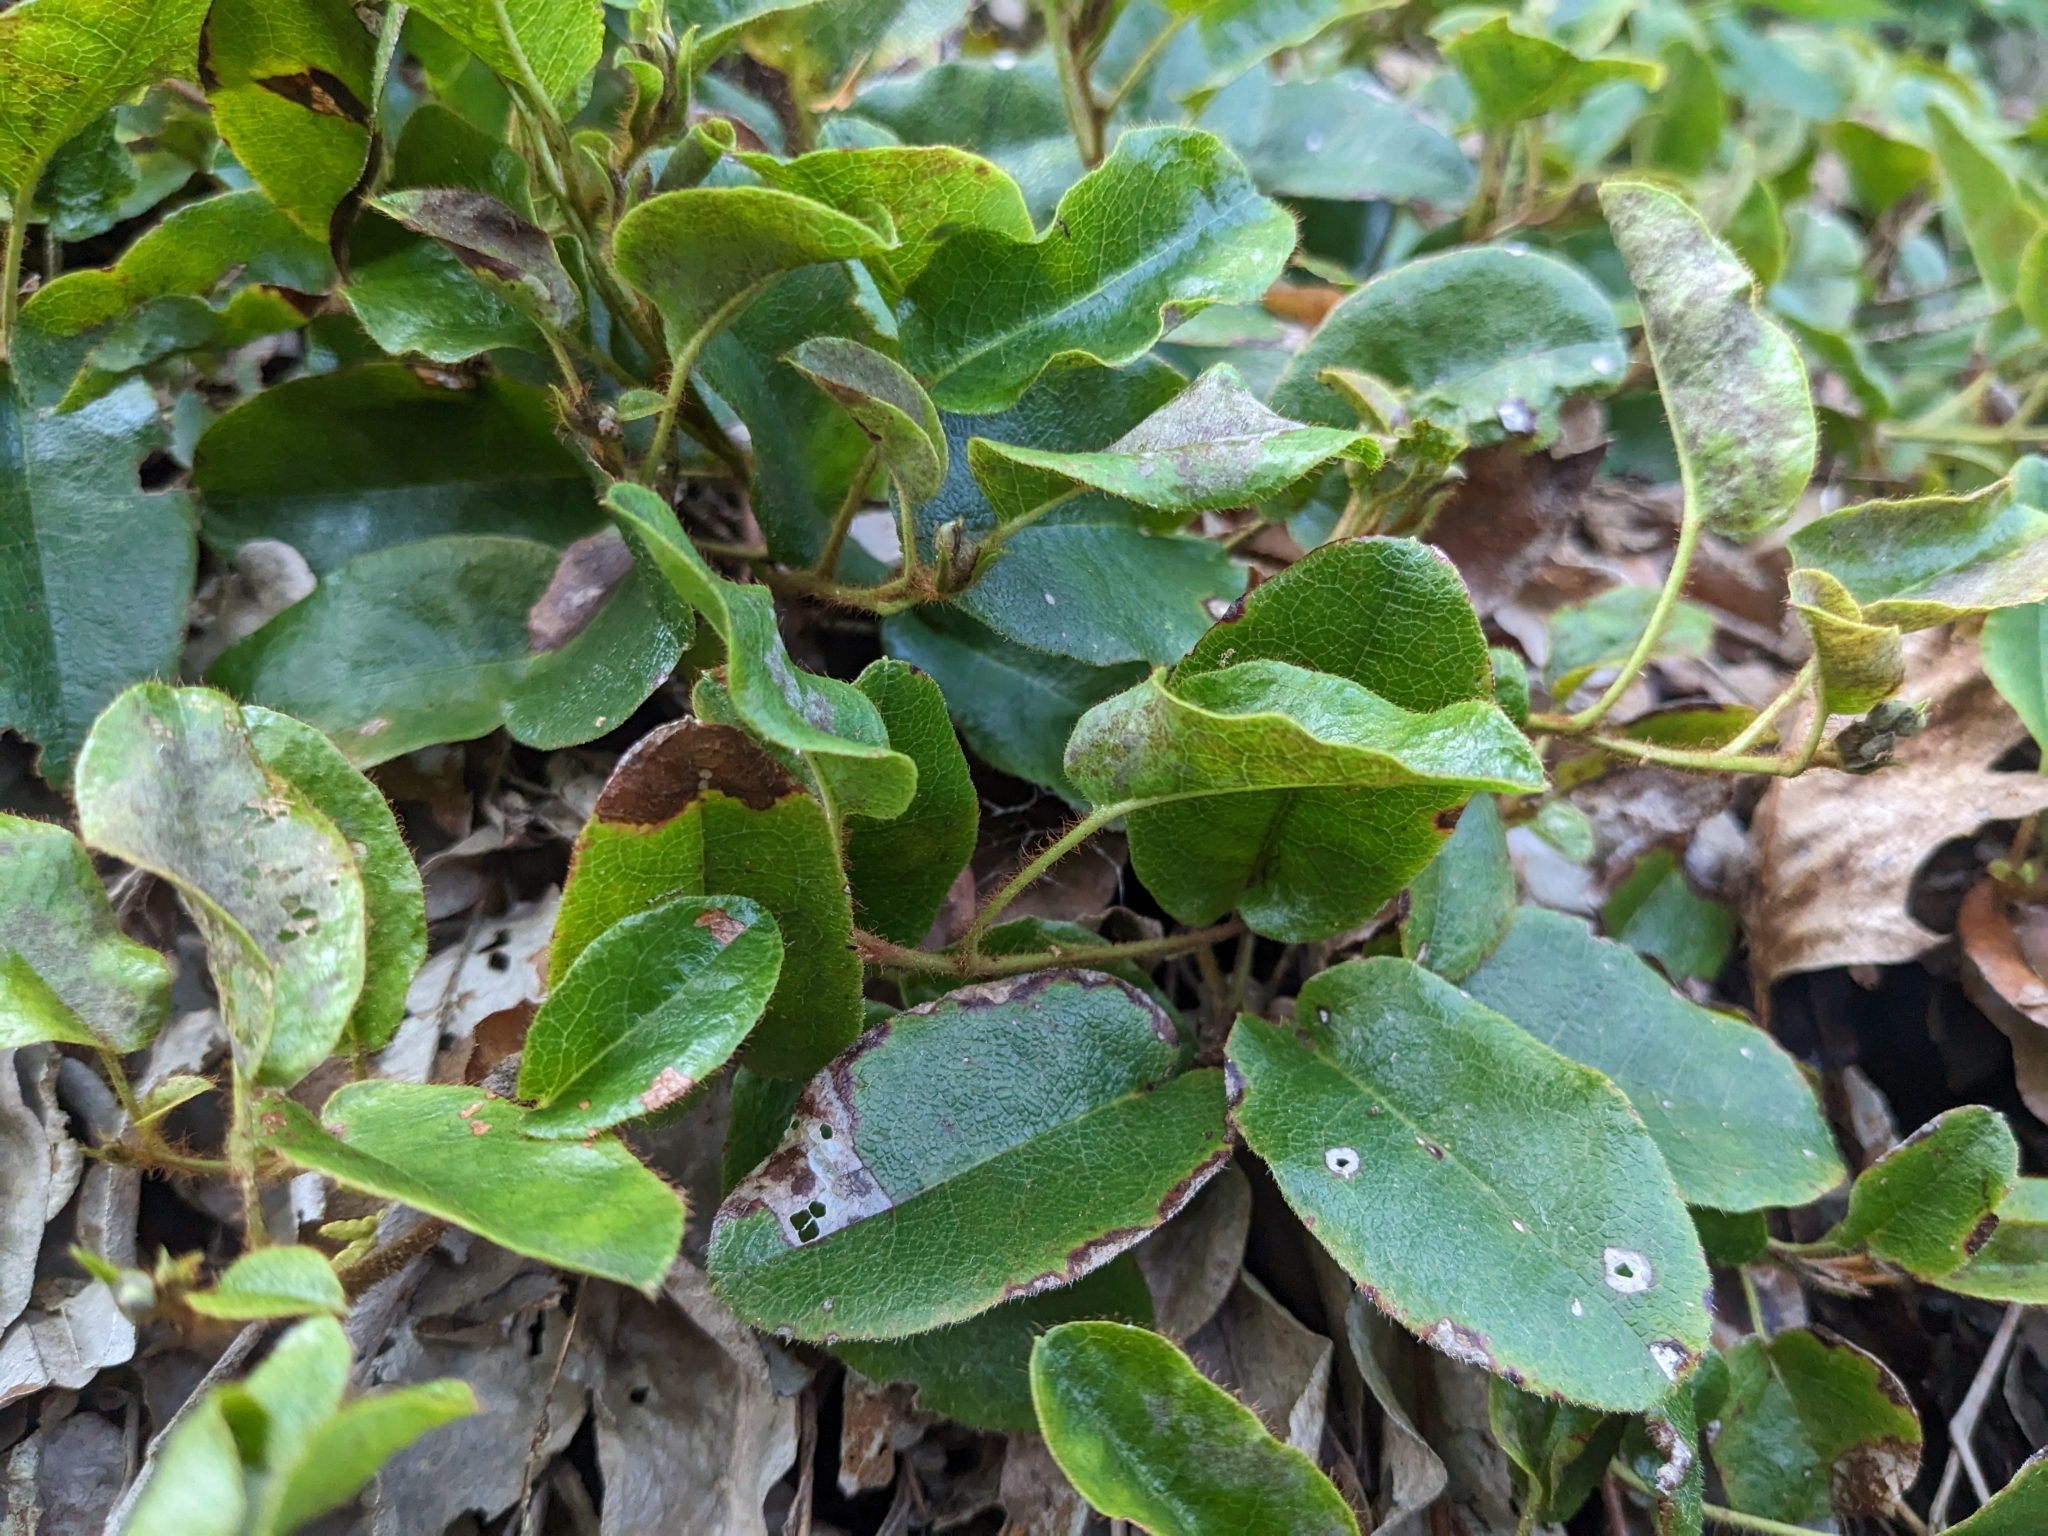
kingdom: Plantae
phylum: Tracheophyta
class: Magnoliopsida
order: Ericales
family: Ericaceae
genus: Epigaea
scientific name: Epigaea repens
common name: Gravelroot
